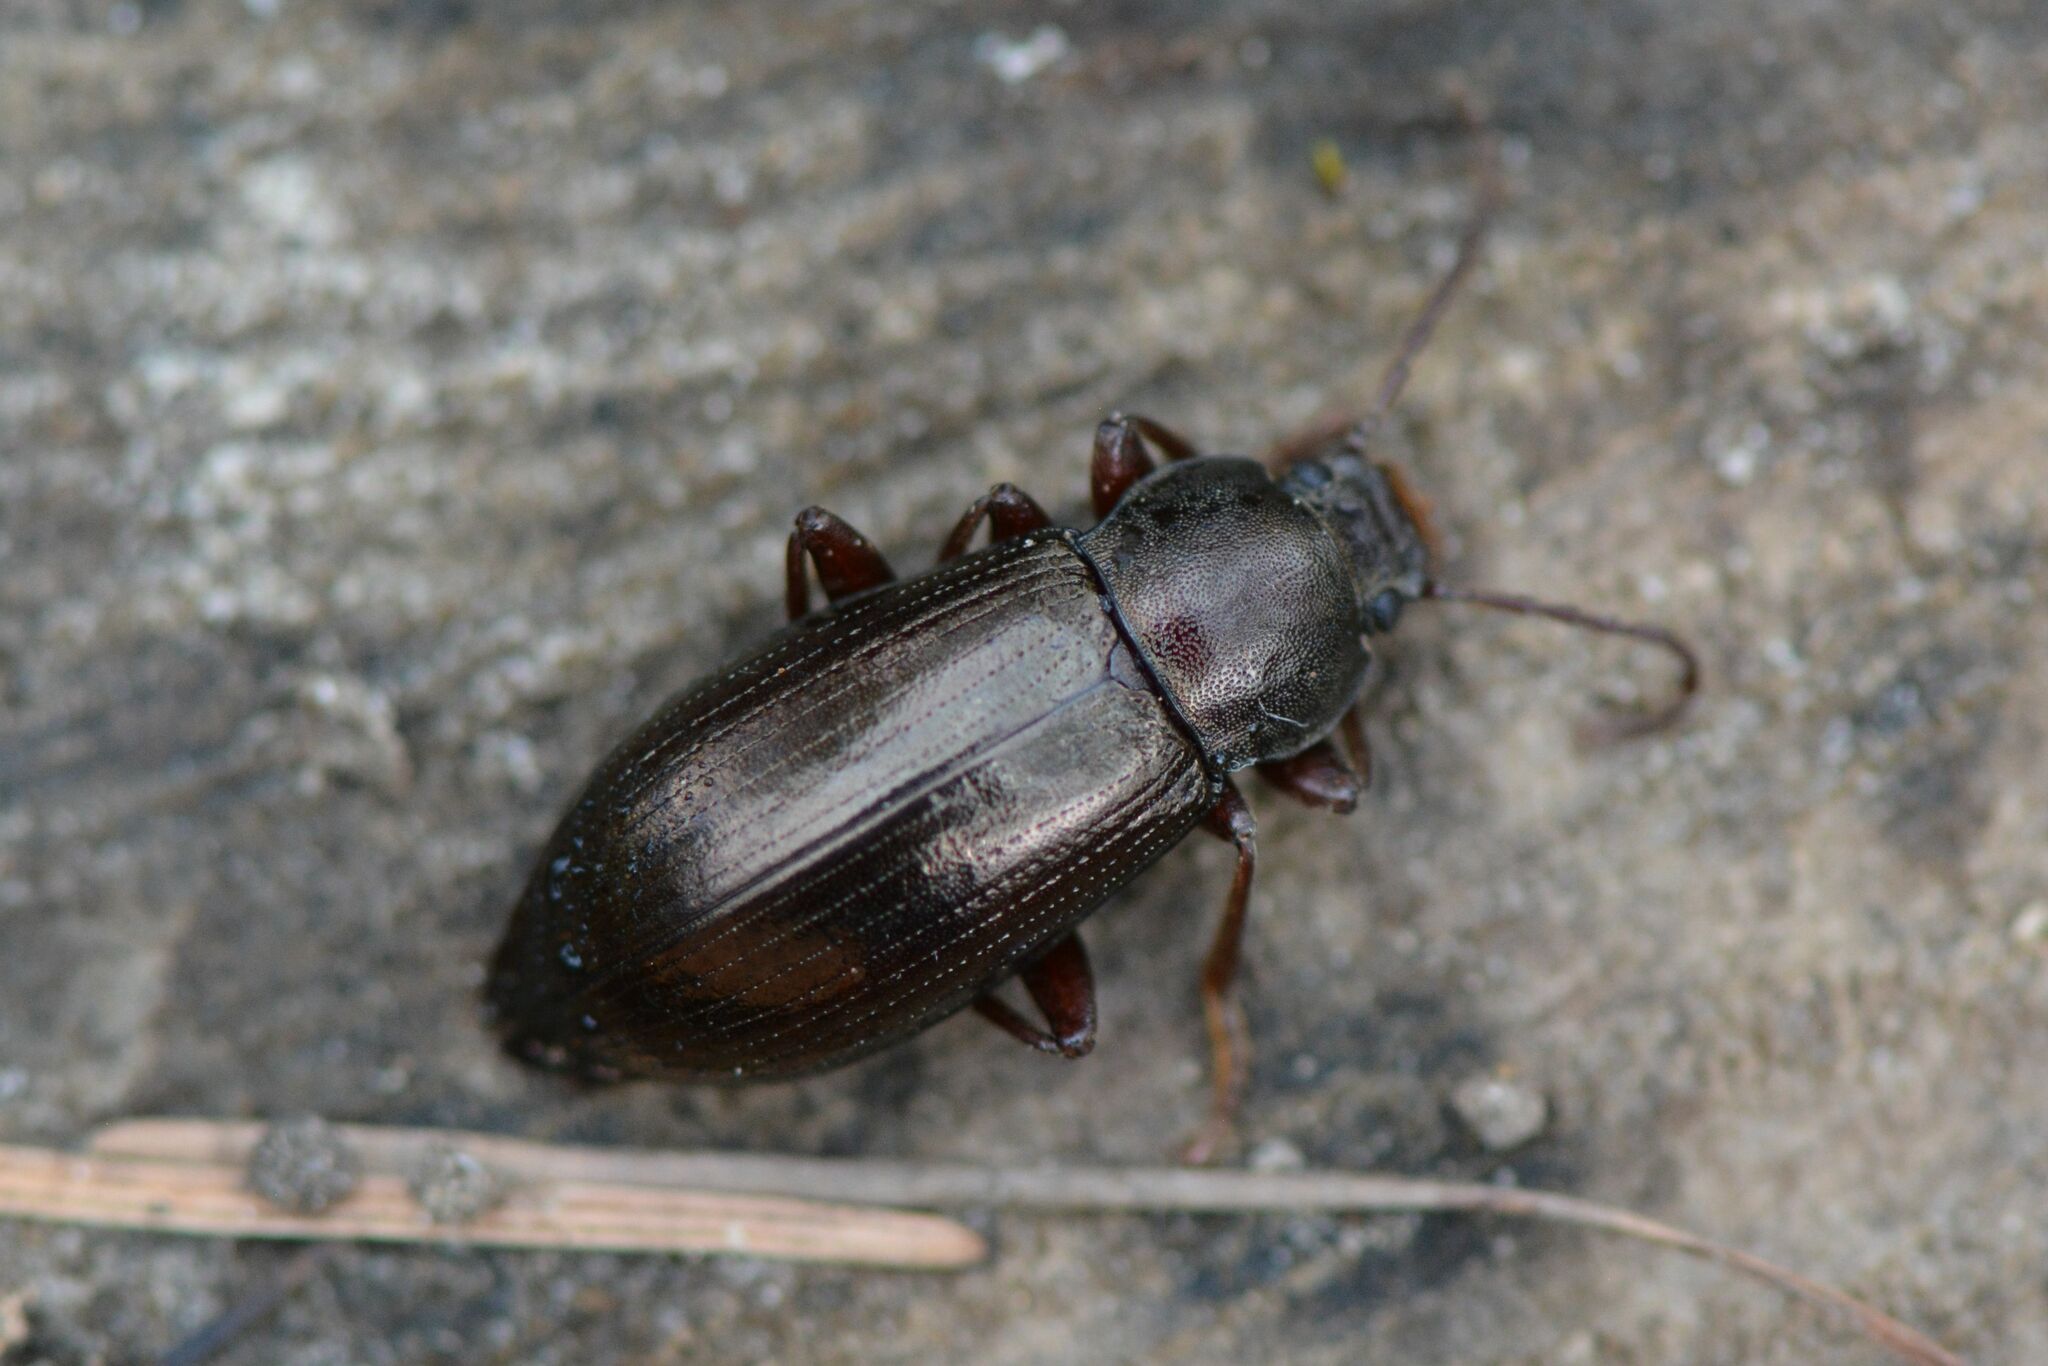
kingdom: Animalia
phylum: Arthropoda
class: Insecta
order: Coleoptera
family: Tenebrionidae
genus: Stenomax
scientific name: Stenomax aeneus
